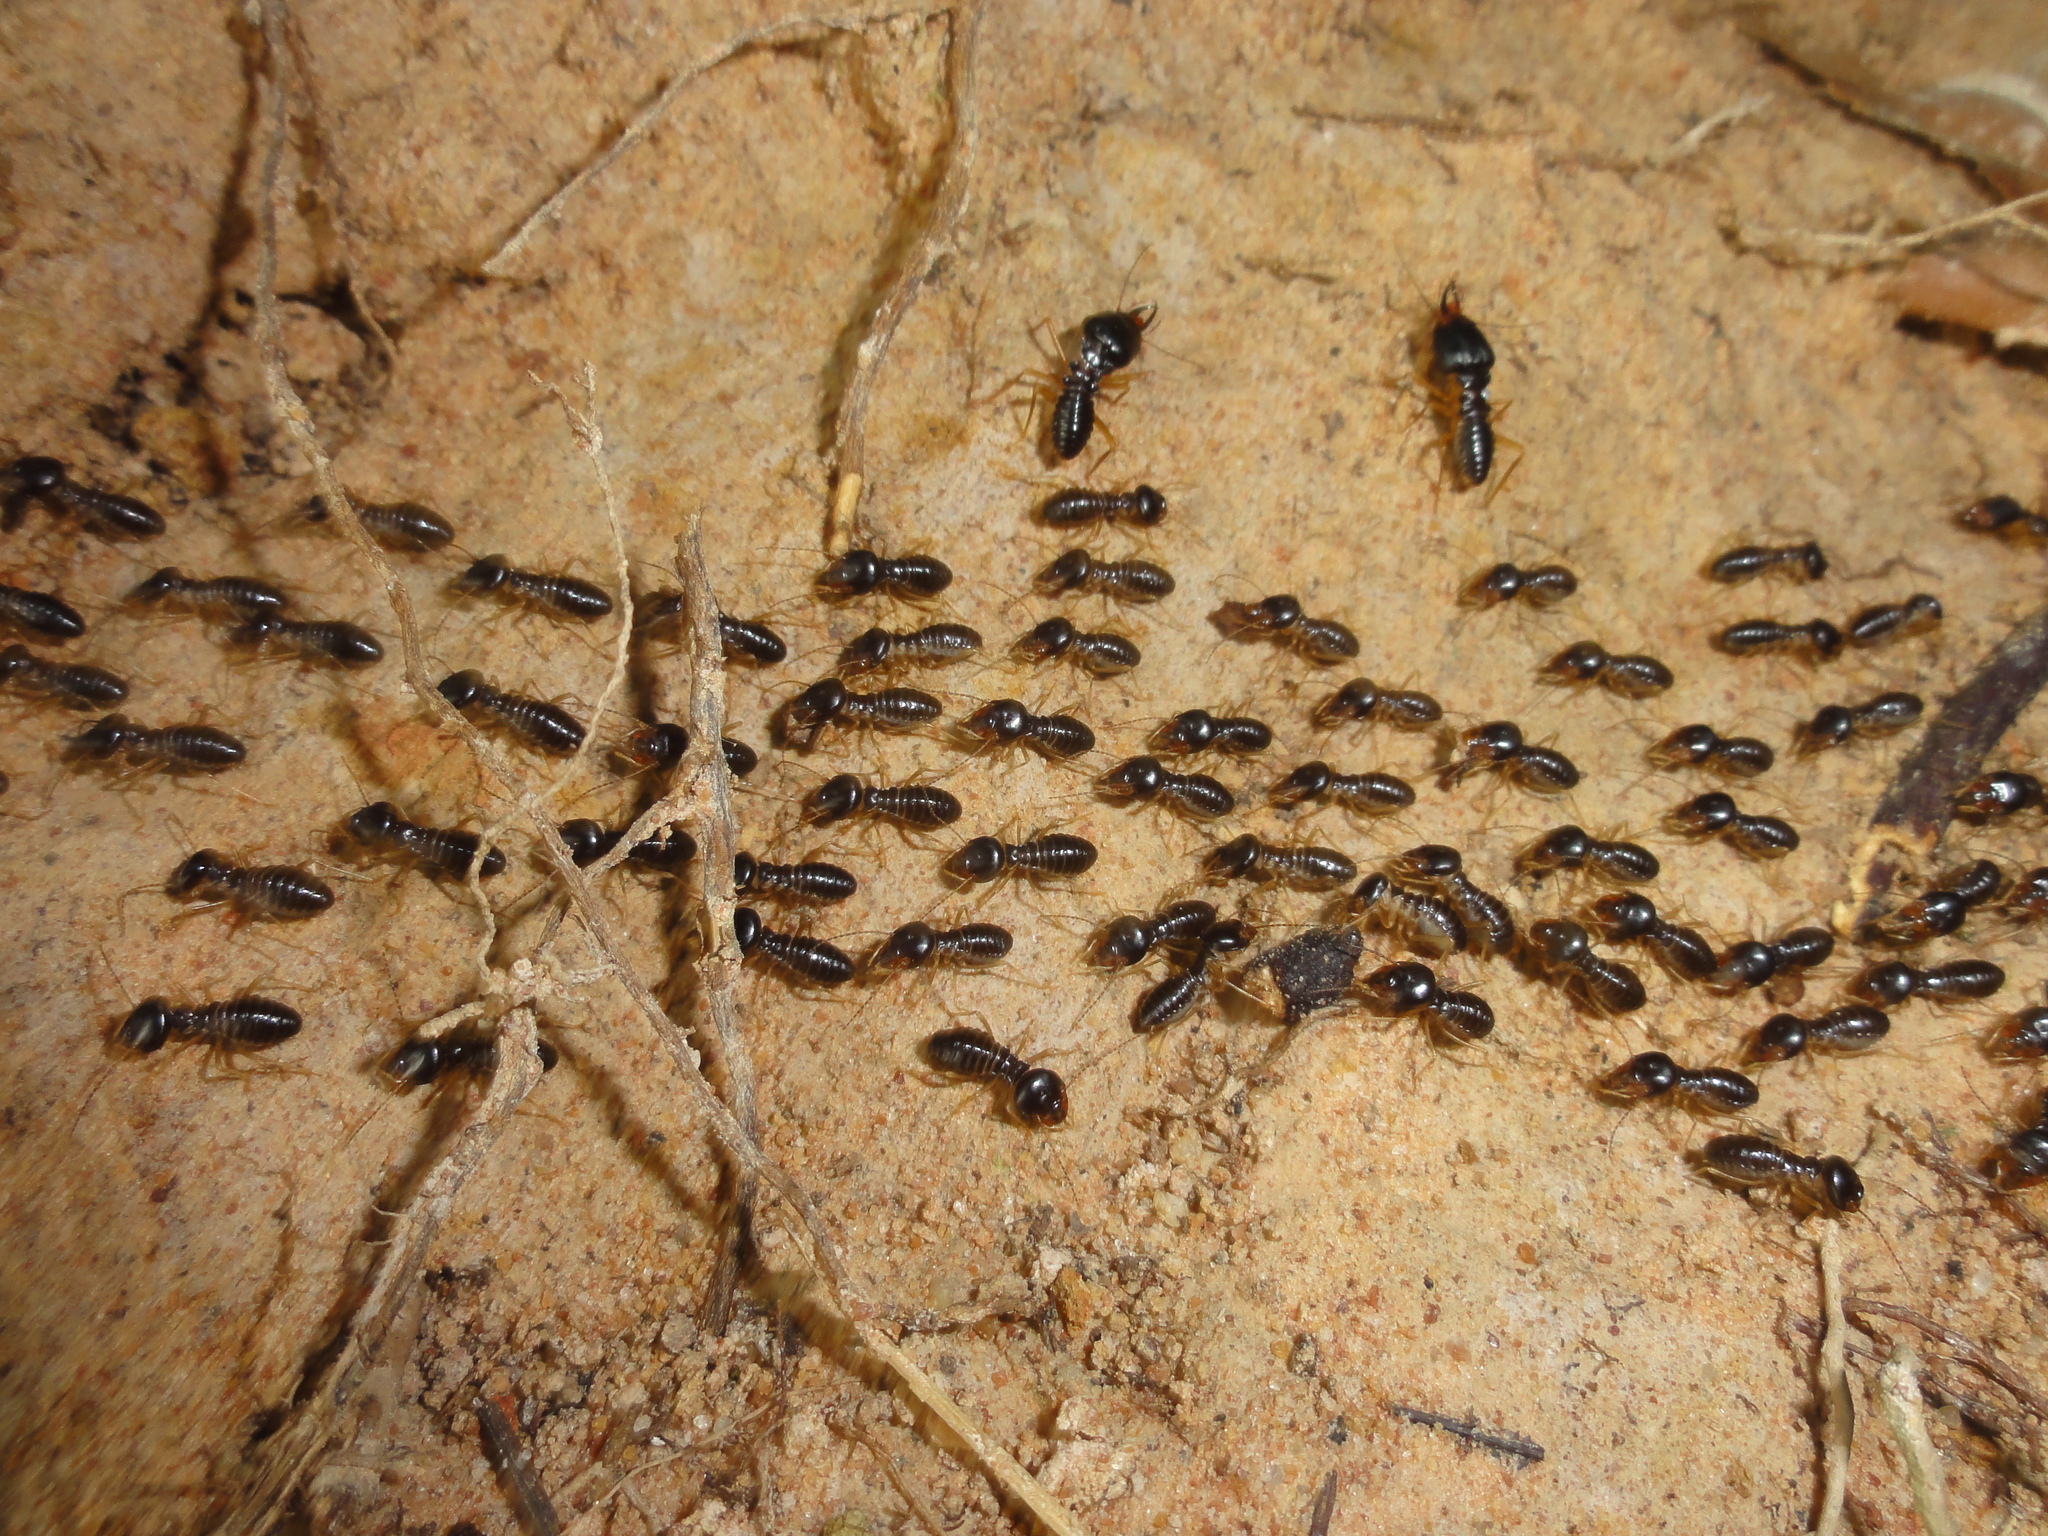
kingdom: Animalia
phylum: Arthropoda
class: Insecta
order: Blattodea
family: Termitidae
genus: Macrotermes
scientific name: Macrotermes carbonarius
